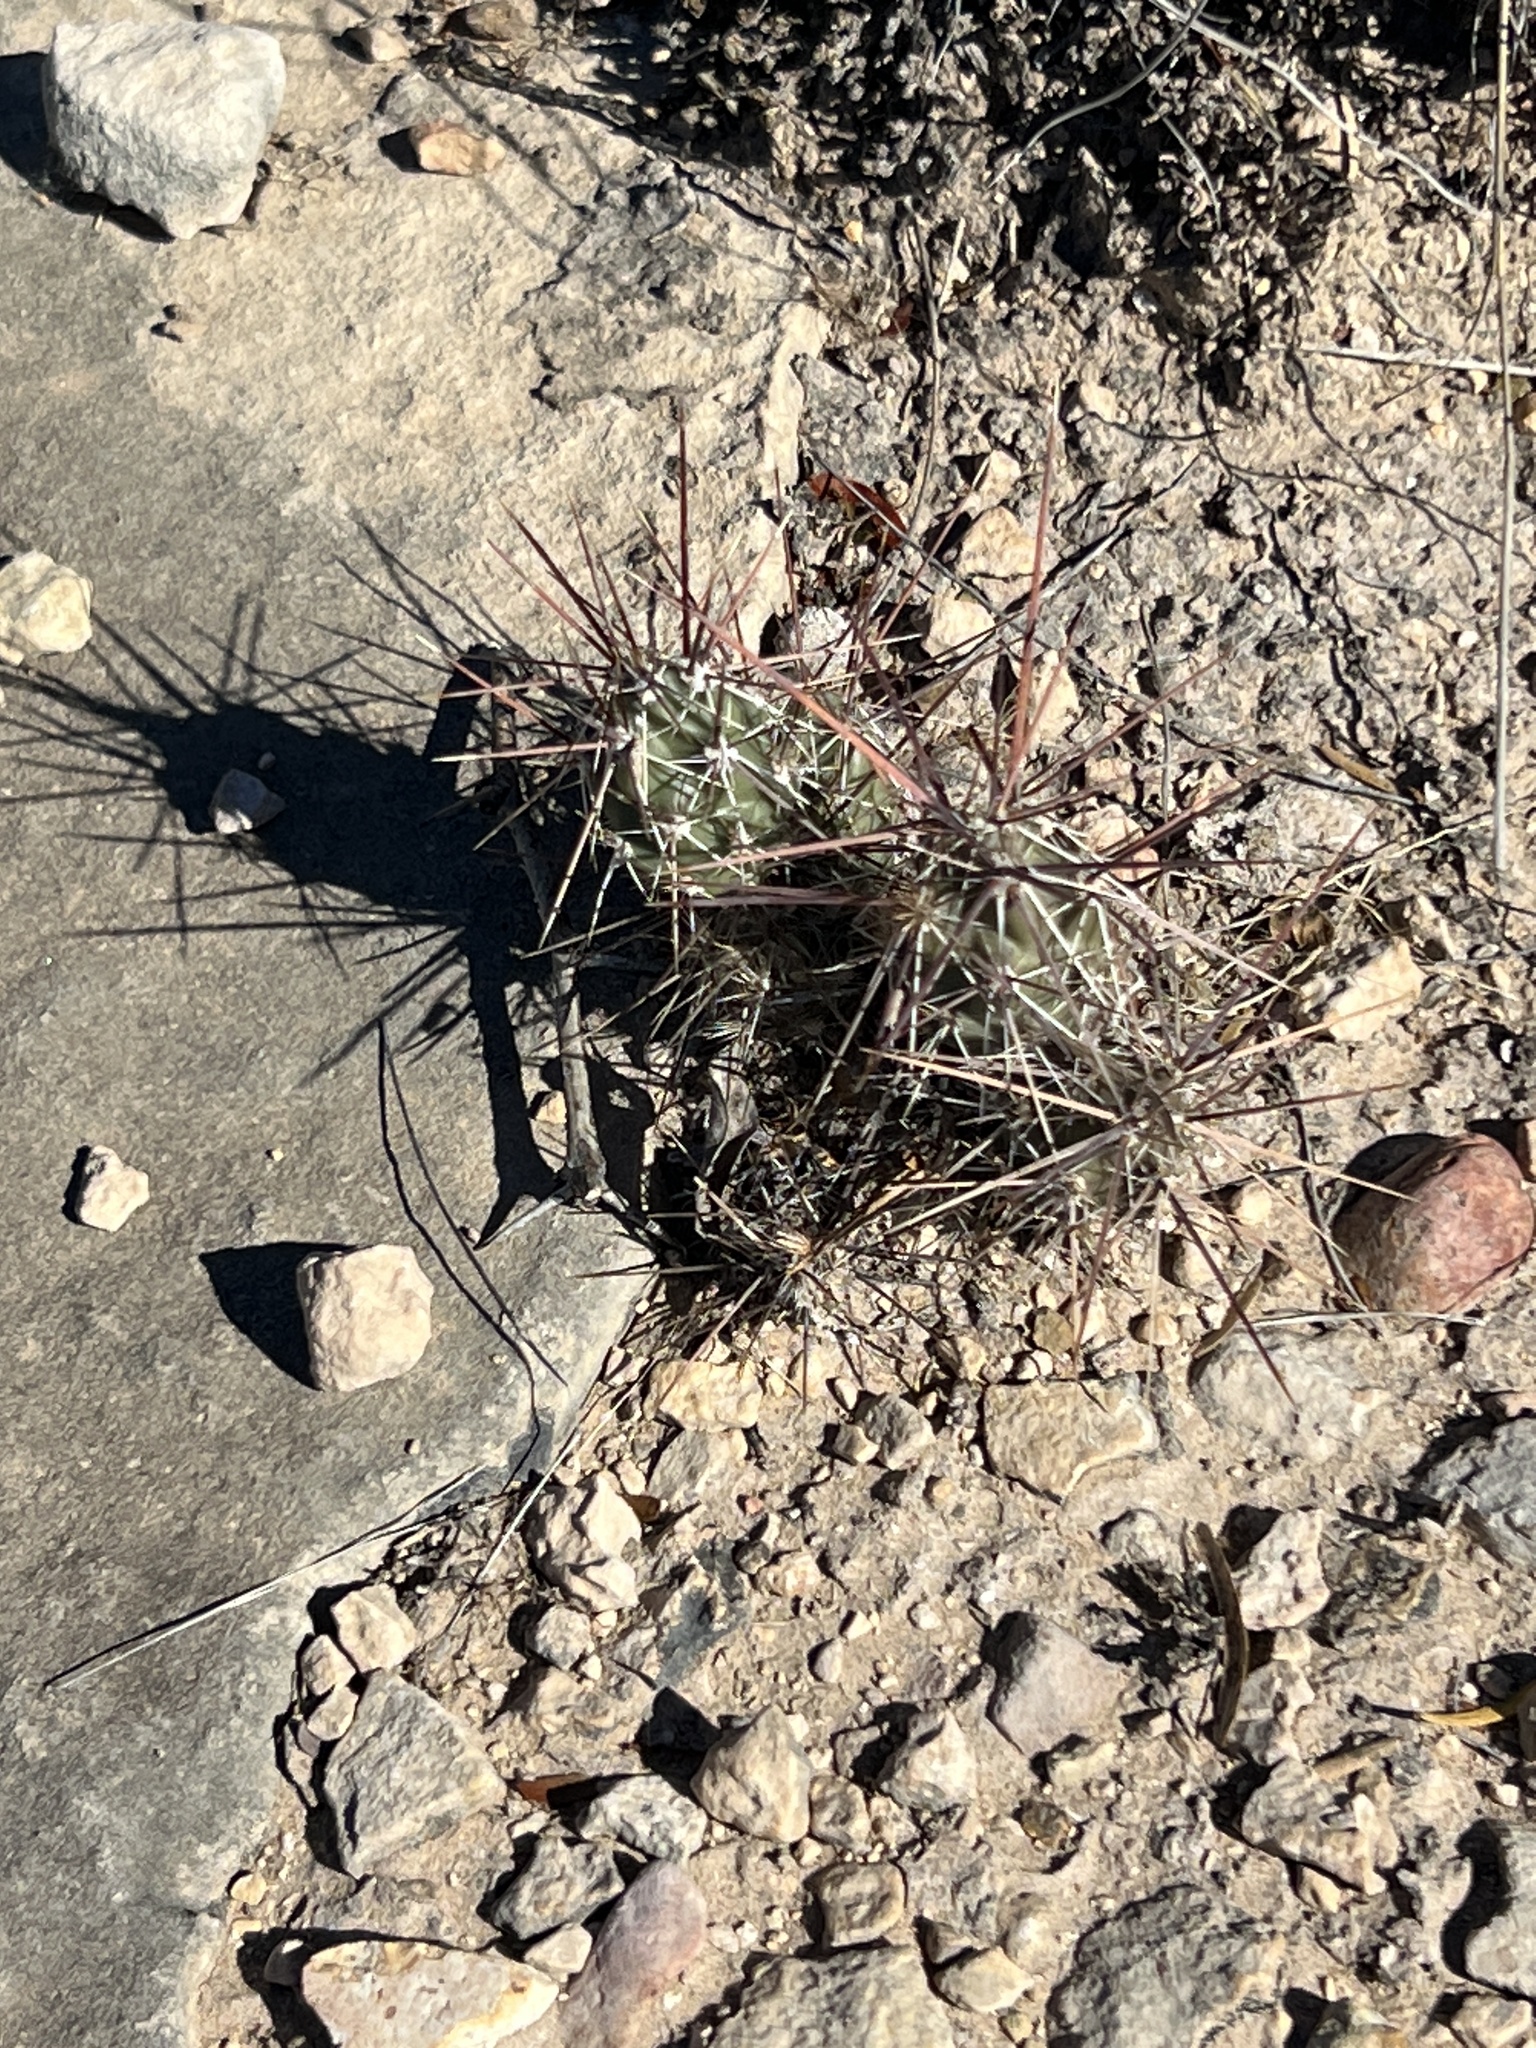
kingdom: Plantae
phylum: Tracheophyta
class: Magnoliopsida
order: Caryophyllales
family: Cactaceae
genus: Grusonia
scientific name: Grusonia schottii
